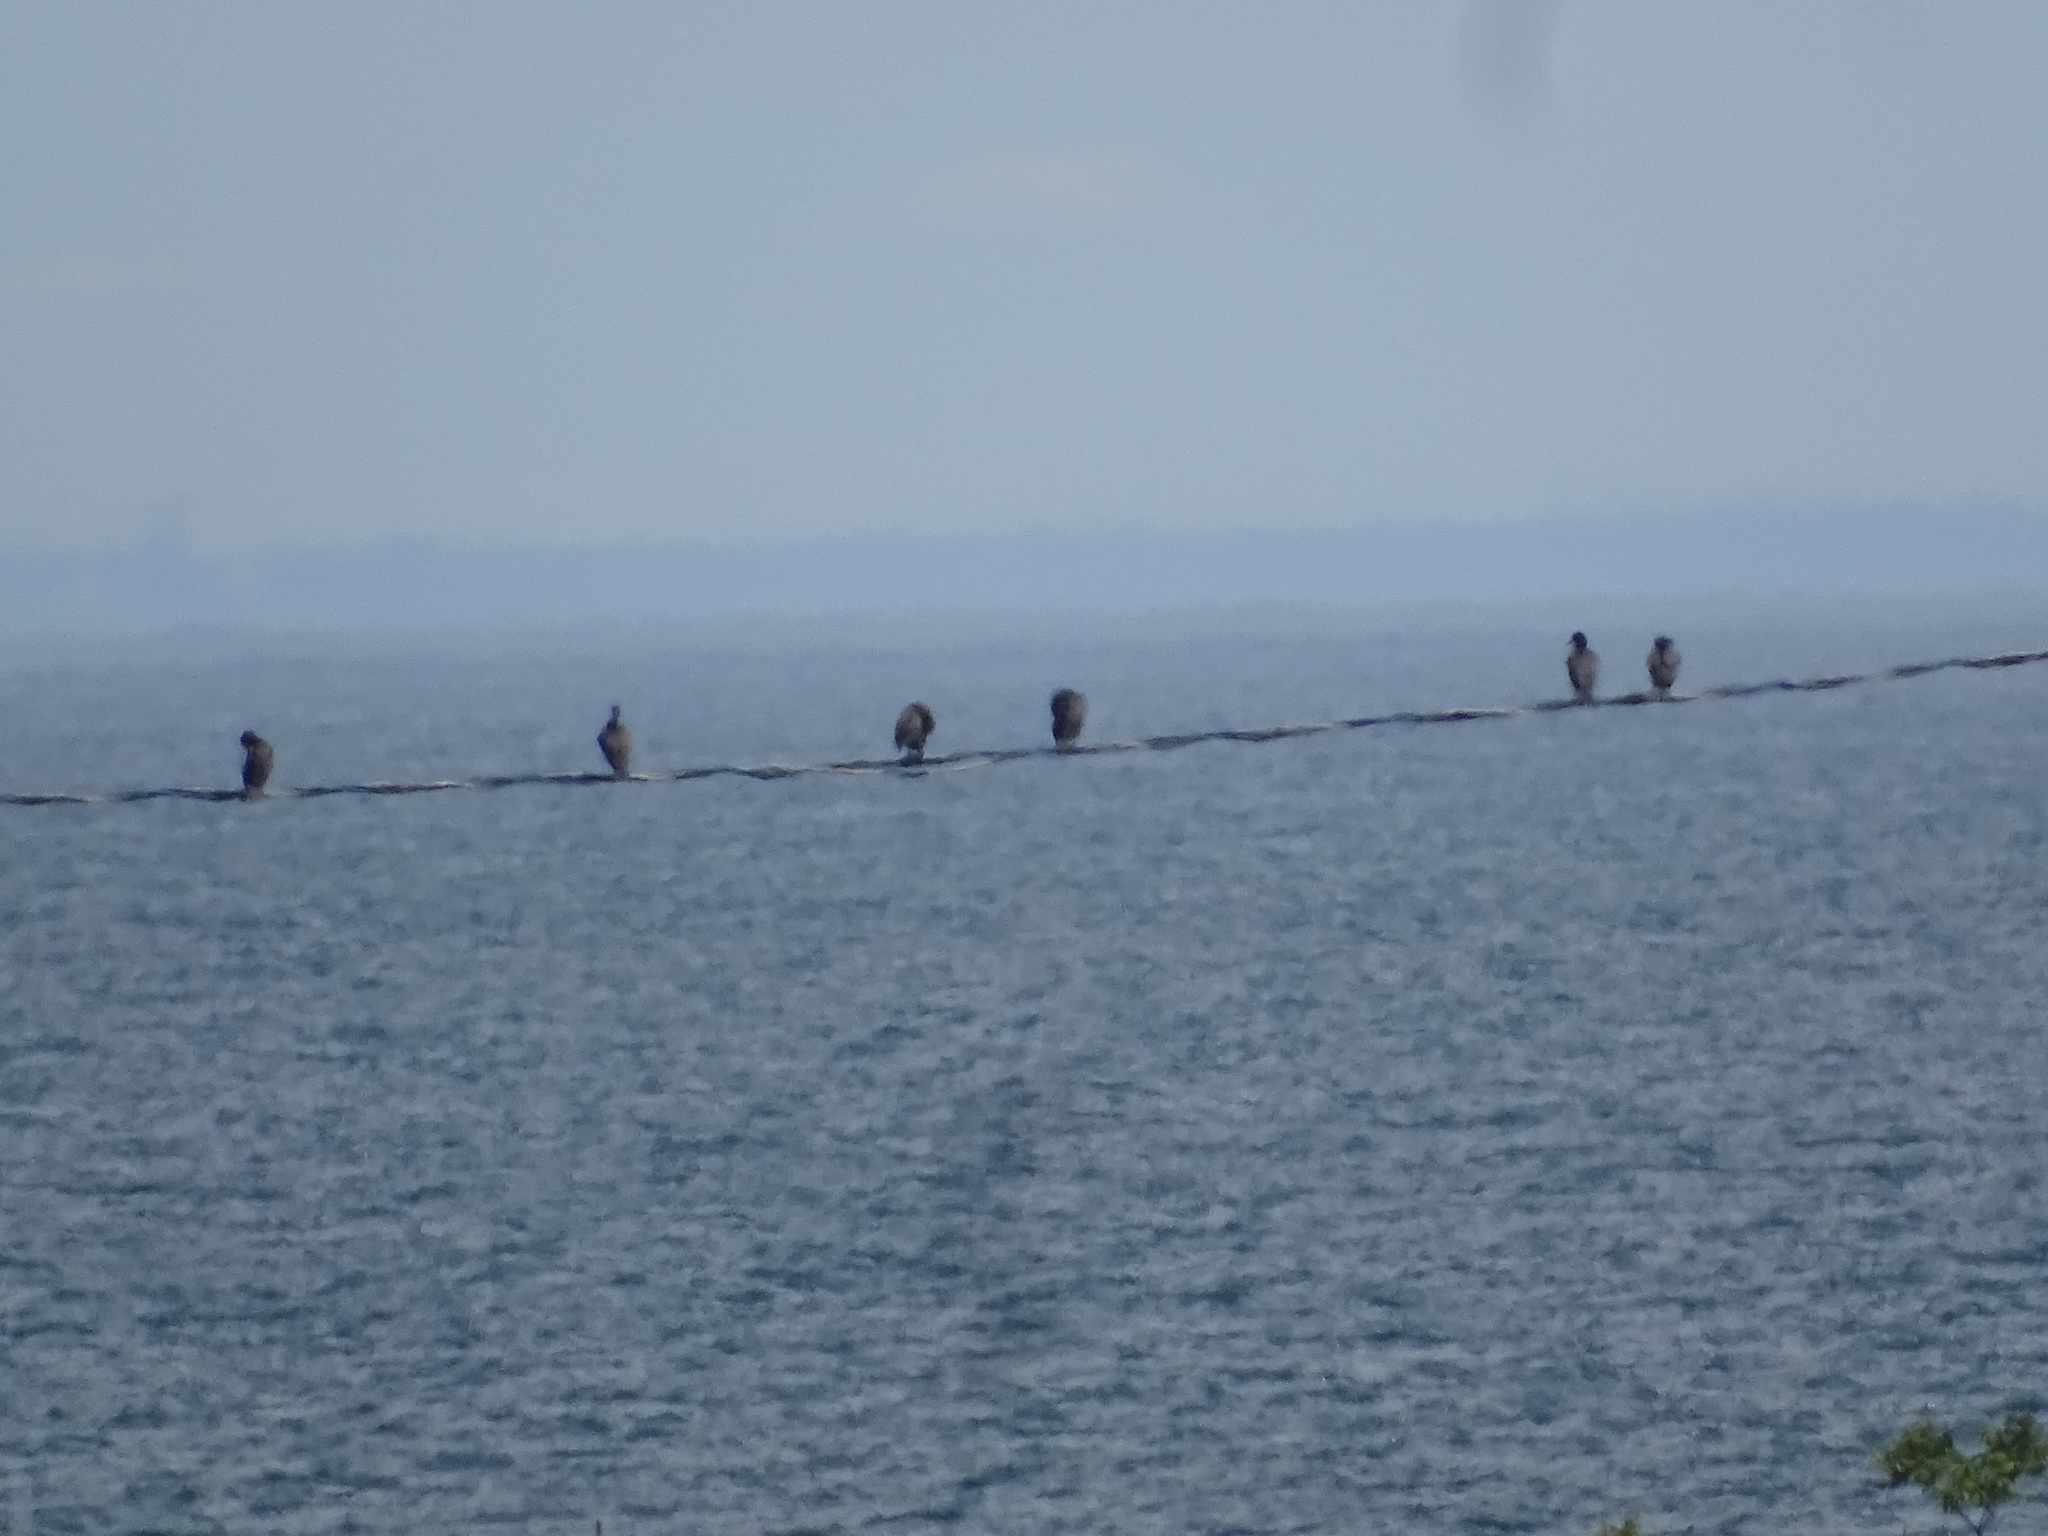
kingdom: Animalia
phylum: Chordata
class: Aves
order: Suliformes
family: Phalacrocoracidae
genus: Phalacrocorax
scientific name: Phalacrocorax auritus
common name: Double-crested cormorant
